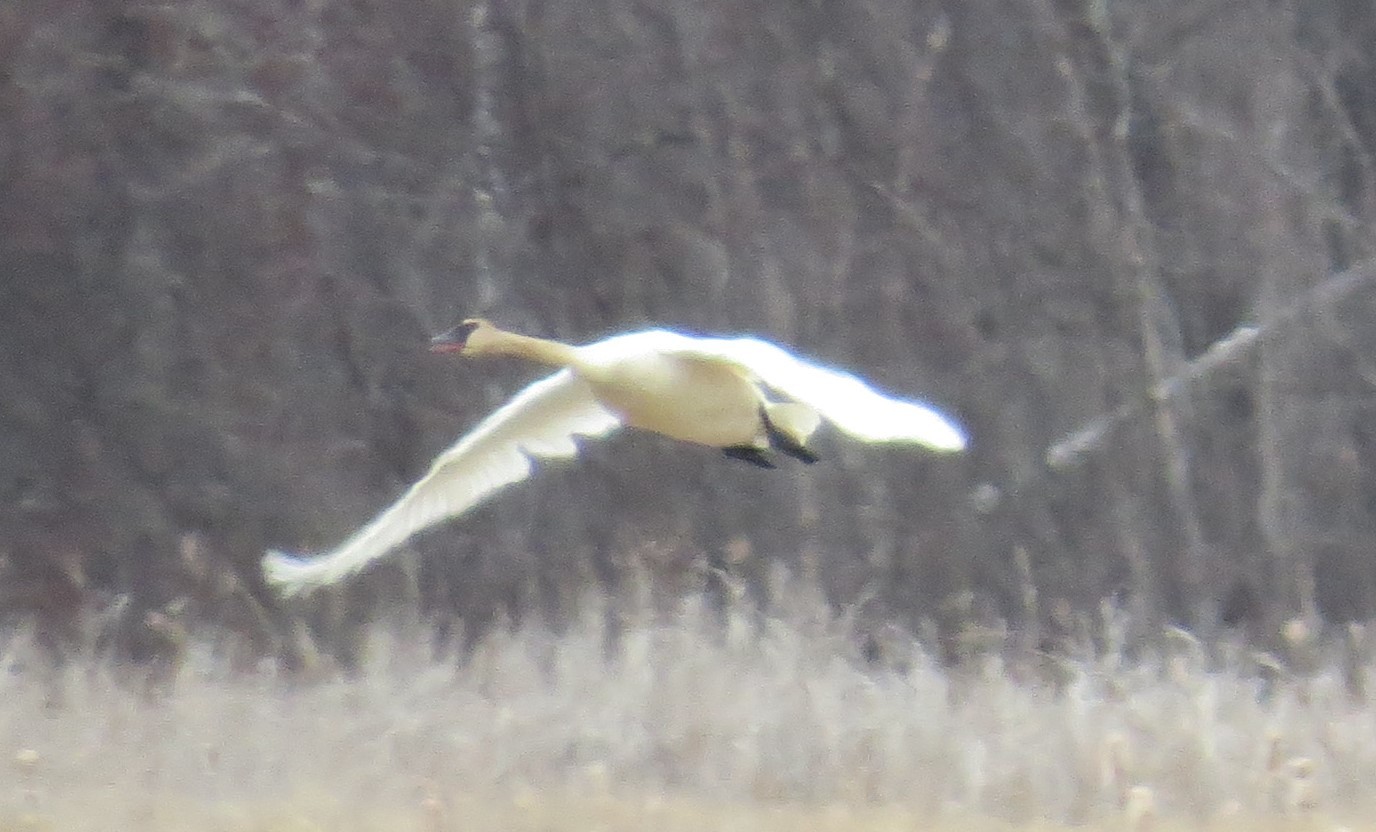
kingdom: Animalia
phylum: Chordata
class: Aves
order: Anseriformes
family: Anatidae
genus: Cygnus
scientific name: Cygnus buccinator
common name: Trumpeter swan
